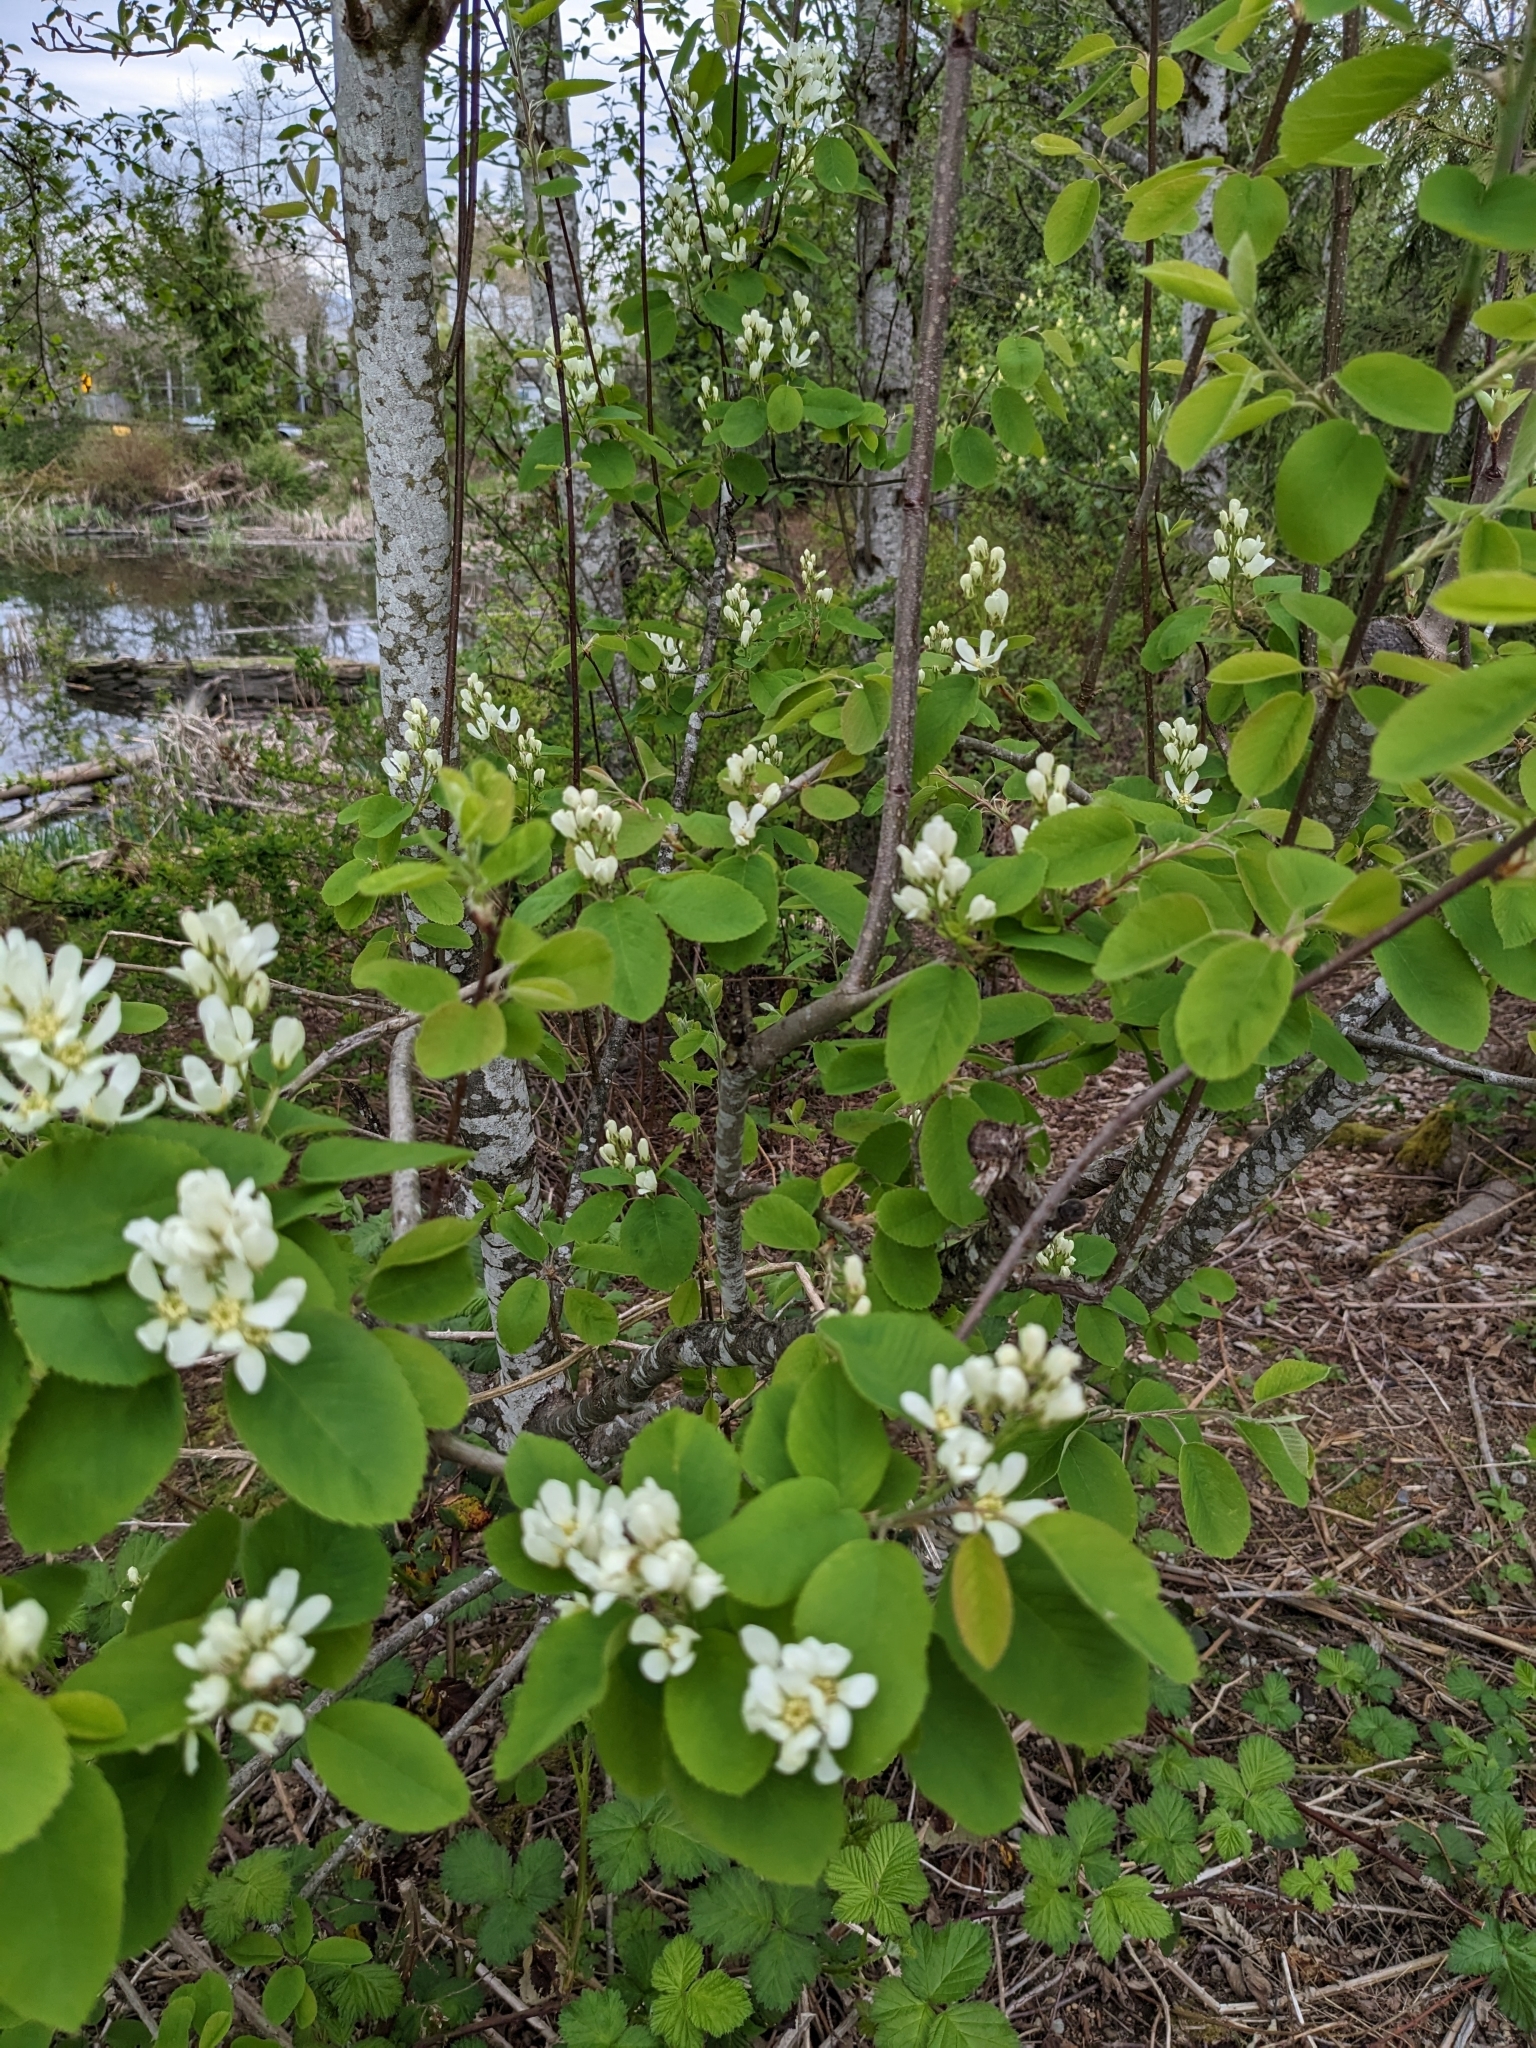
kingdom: Plantae
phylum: Tracheophyta
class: Magnoliopsida
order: Rosales
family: Rosaceae
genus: Amelanchier
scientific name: Amelanchier alnifolia
